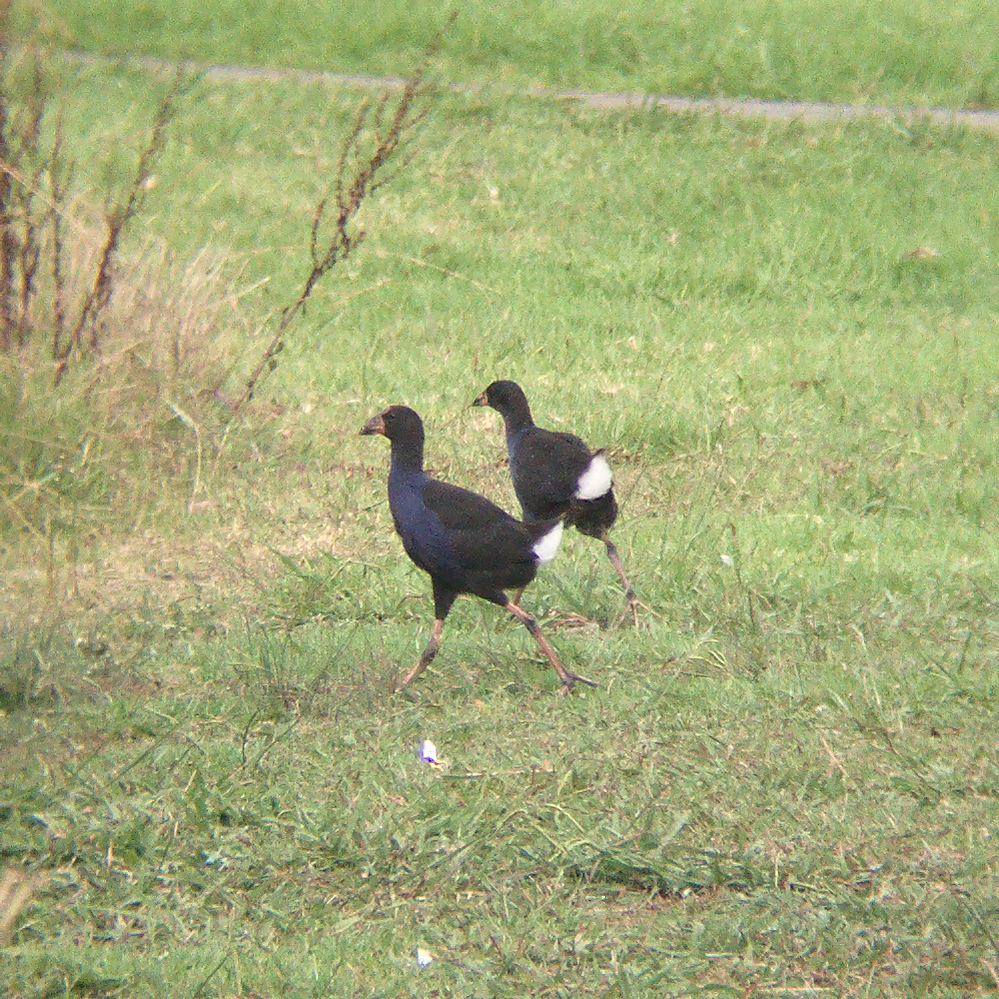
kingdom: Animalia
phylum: Chordata
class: Aves
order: Gruiformes
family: Rallidae
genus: Porphyrio
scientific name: Porphyrio melanotus
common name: Australasian swamphen
